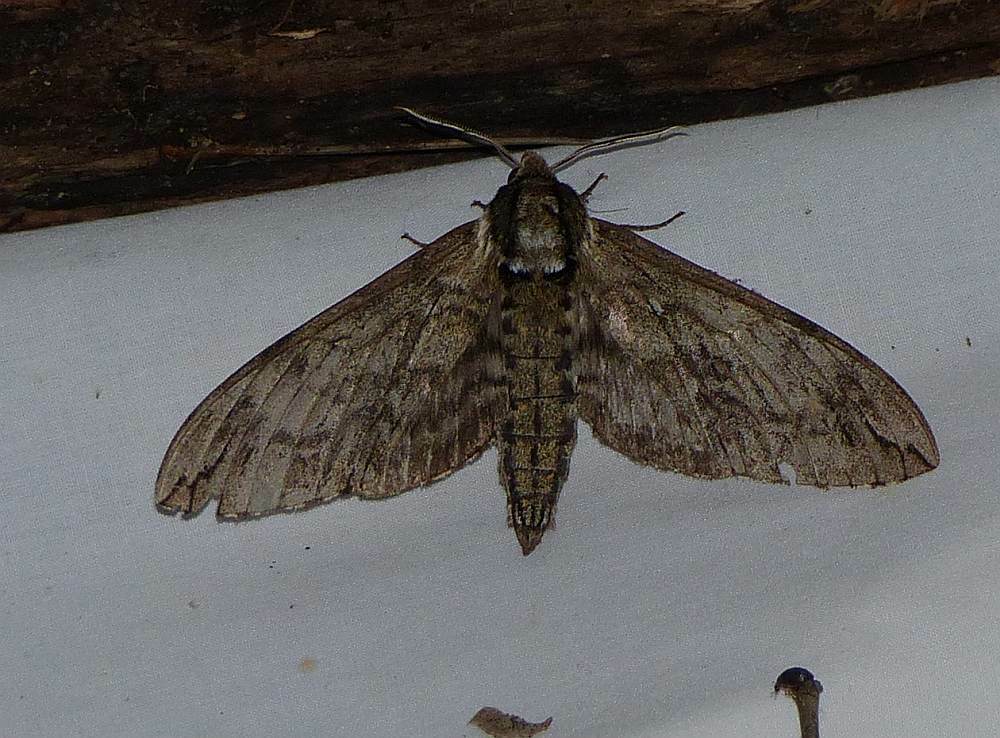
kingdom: Animalia
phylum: Arthropoda
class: Insecta
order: Lepidoptera
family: Sphingidae
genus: Ceratomia
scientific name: Ceratomia undulosa
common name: Waved sphinx
